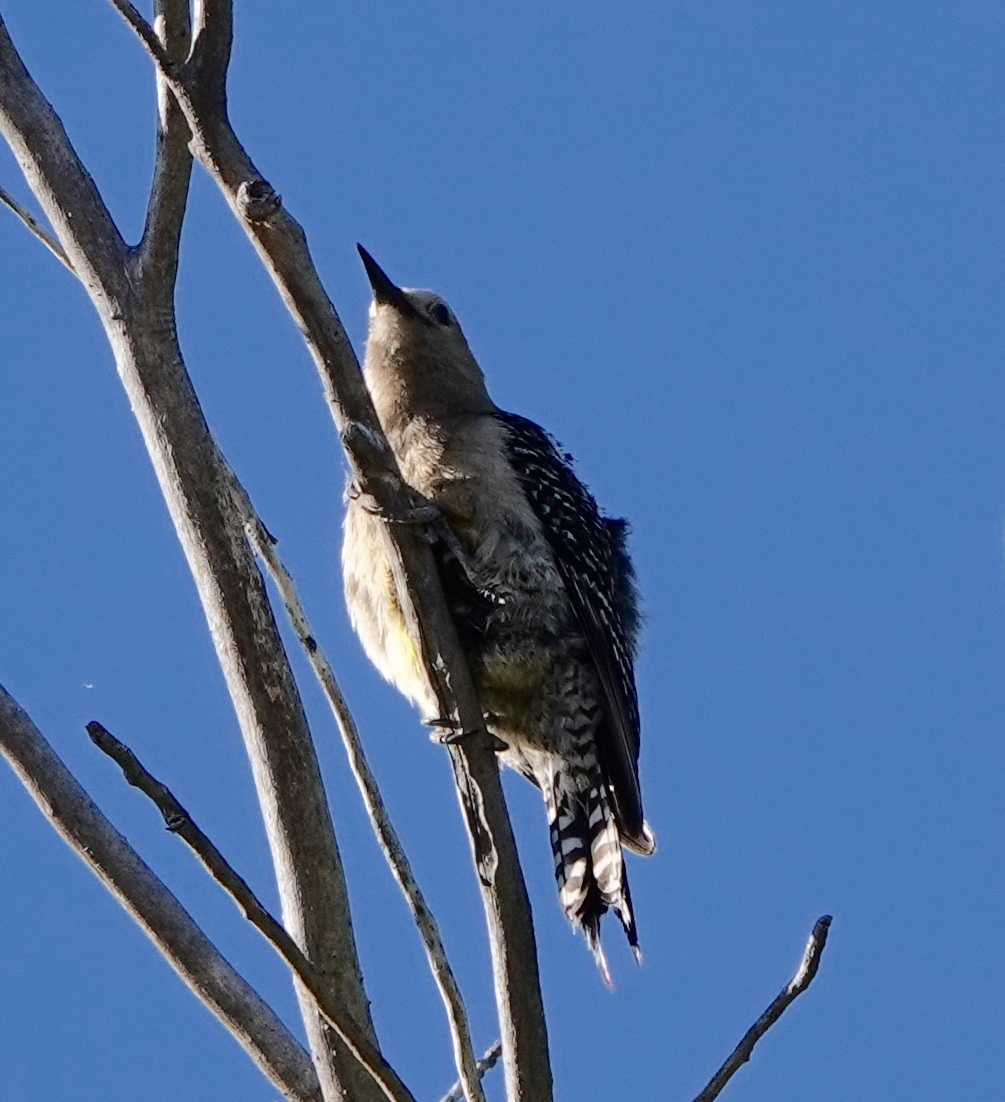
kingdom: Animalia
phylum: Chordata
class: Aves
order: Piciformes
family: Picidae
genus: Melanerpes
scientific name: Melanerpes uropygialis
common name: Gila woodpecker
